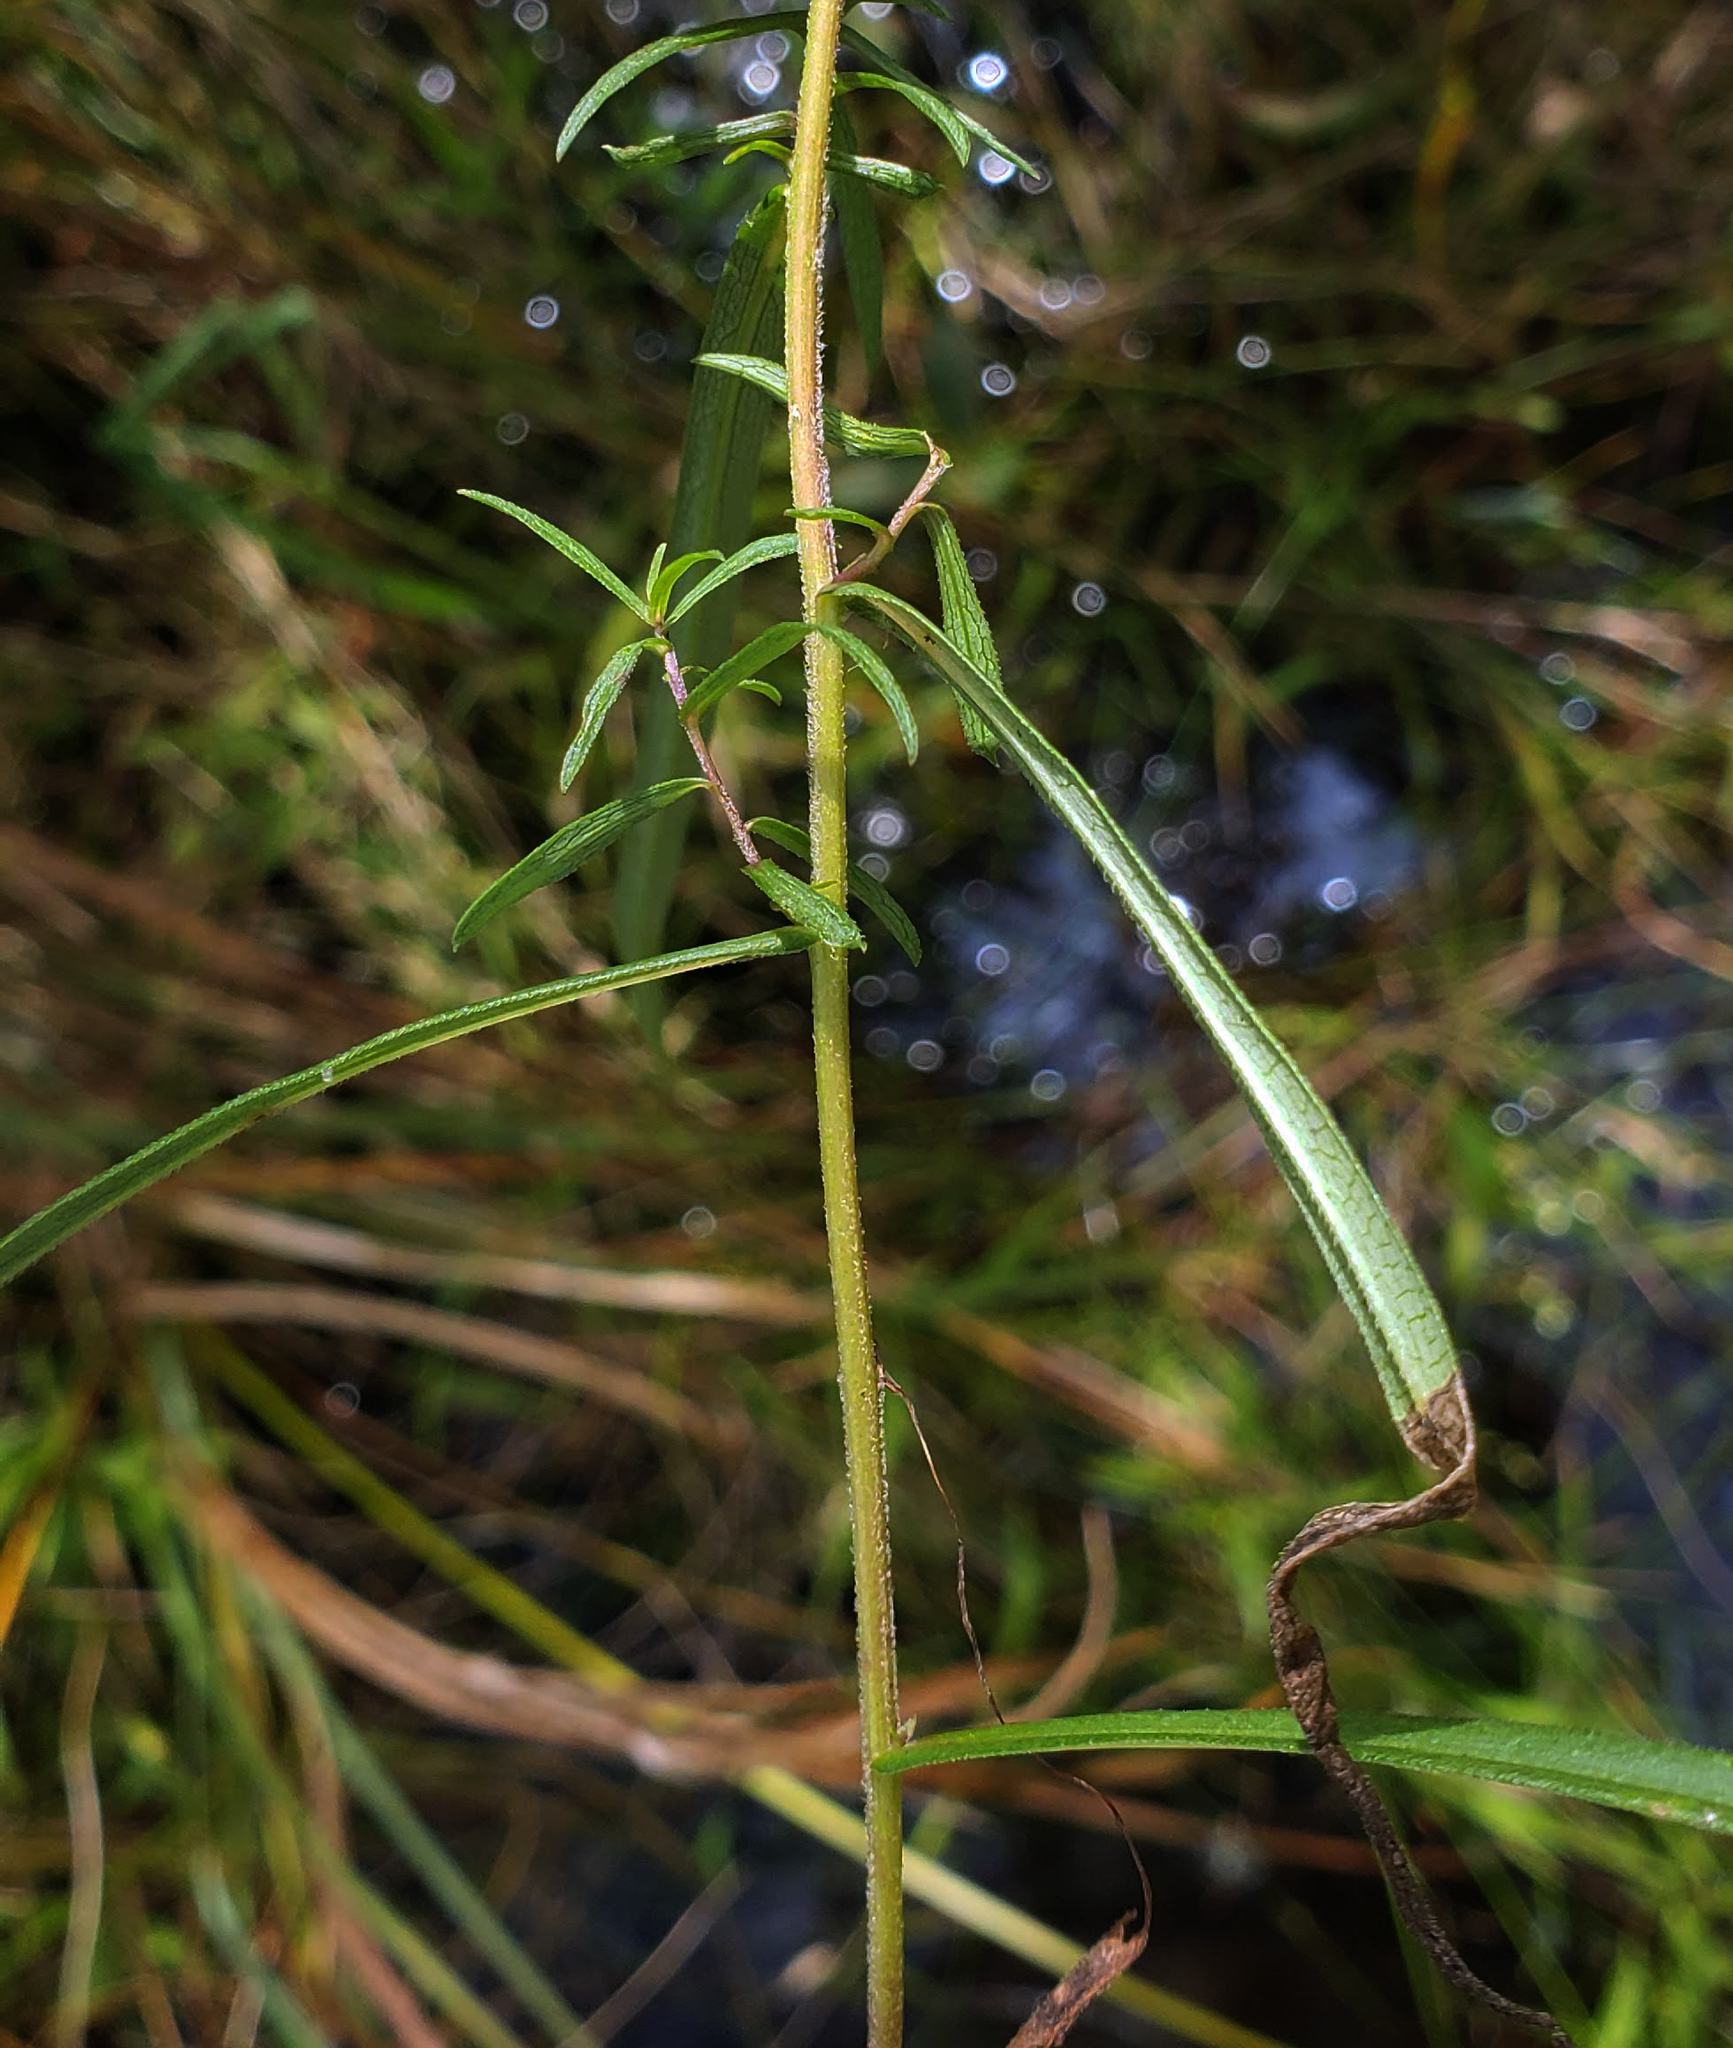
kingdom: Plantae
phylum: Tracheophyta
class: Magnoliopsida
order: Asterales
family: Asteraceae
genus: Symphyotrichum
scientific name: Symphyotrichum boreale
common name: Northern bog aster
